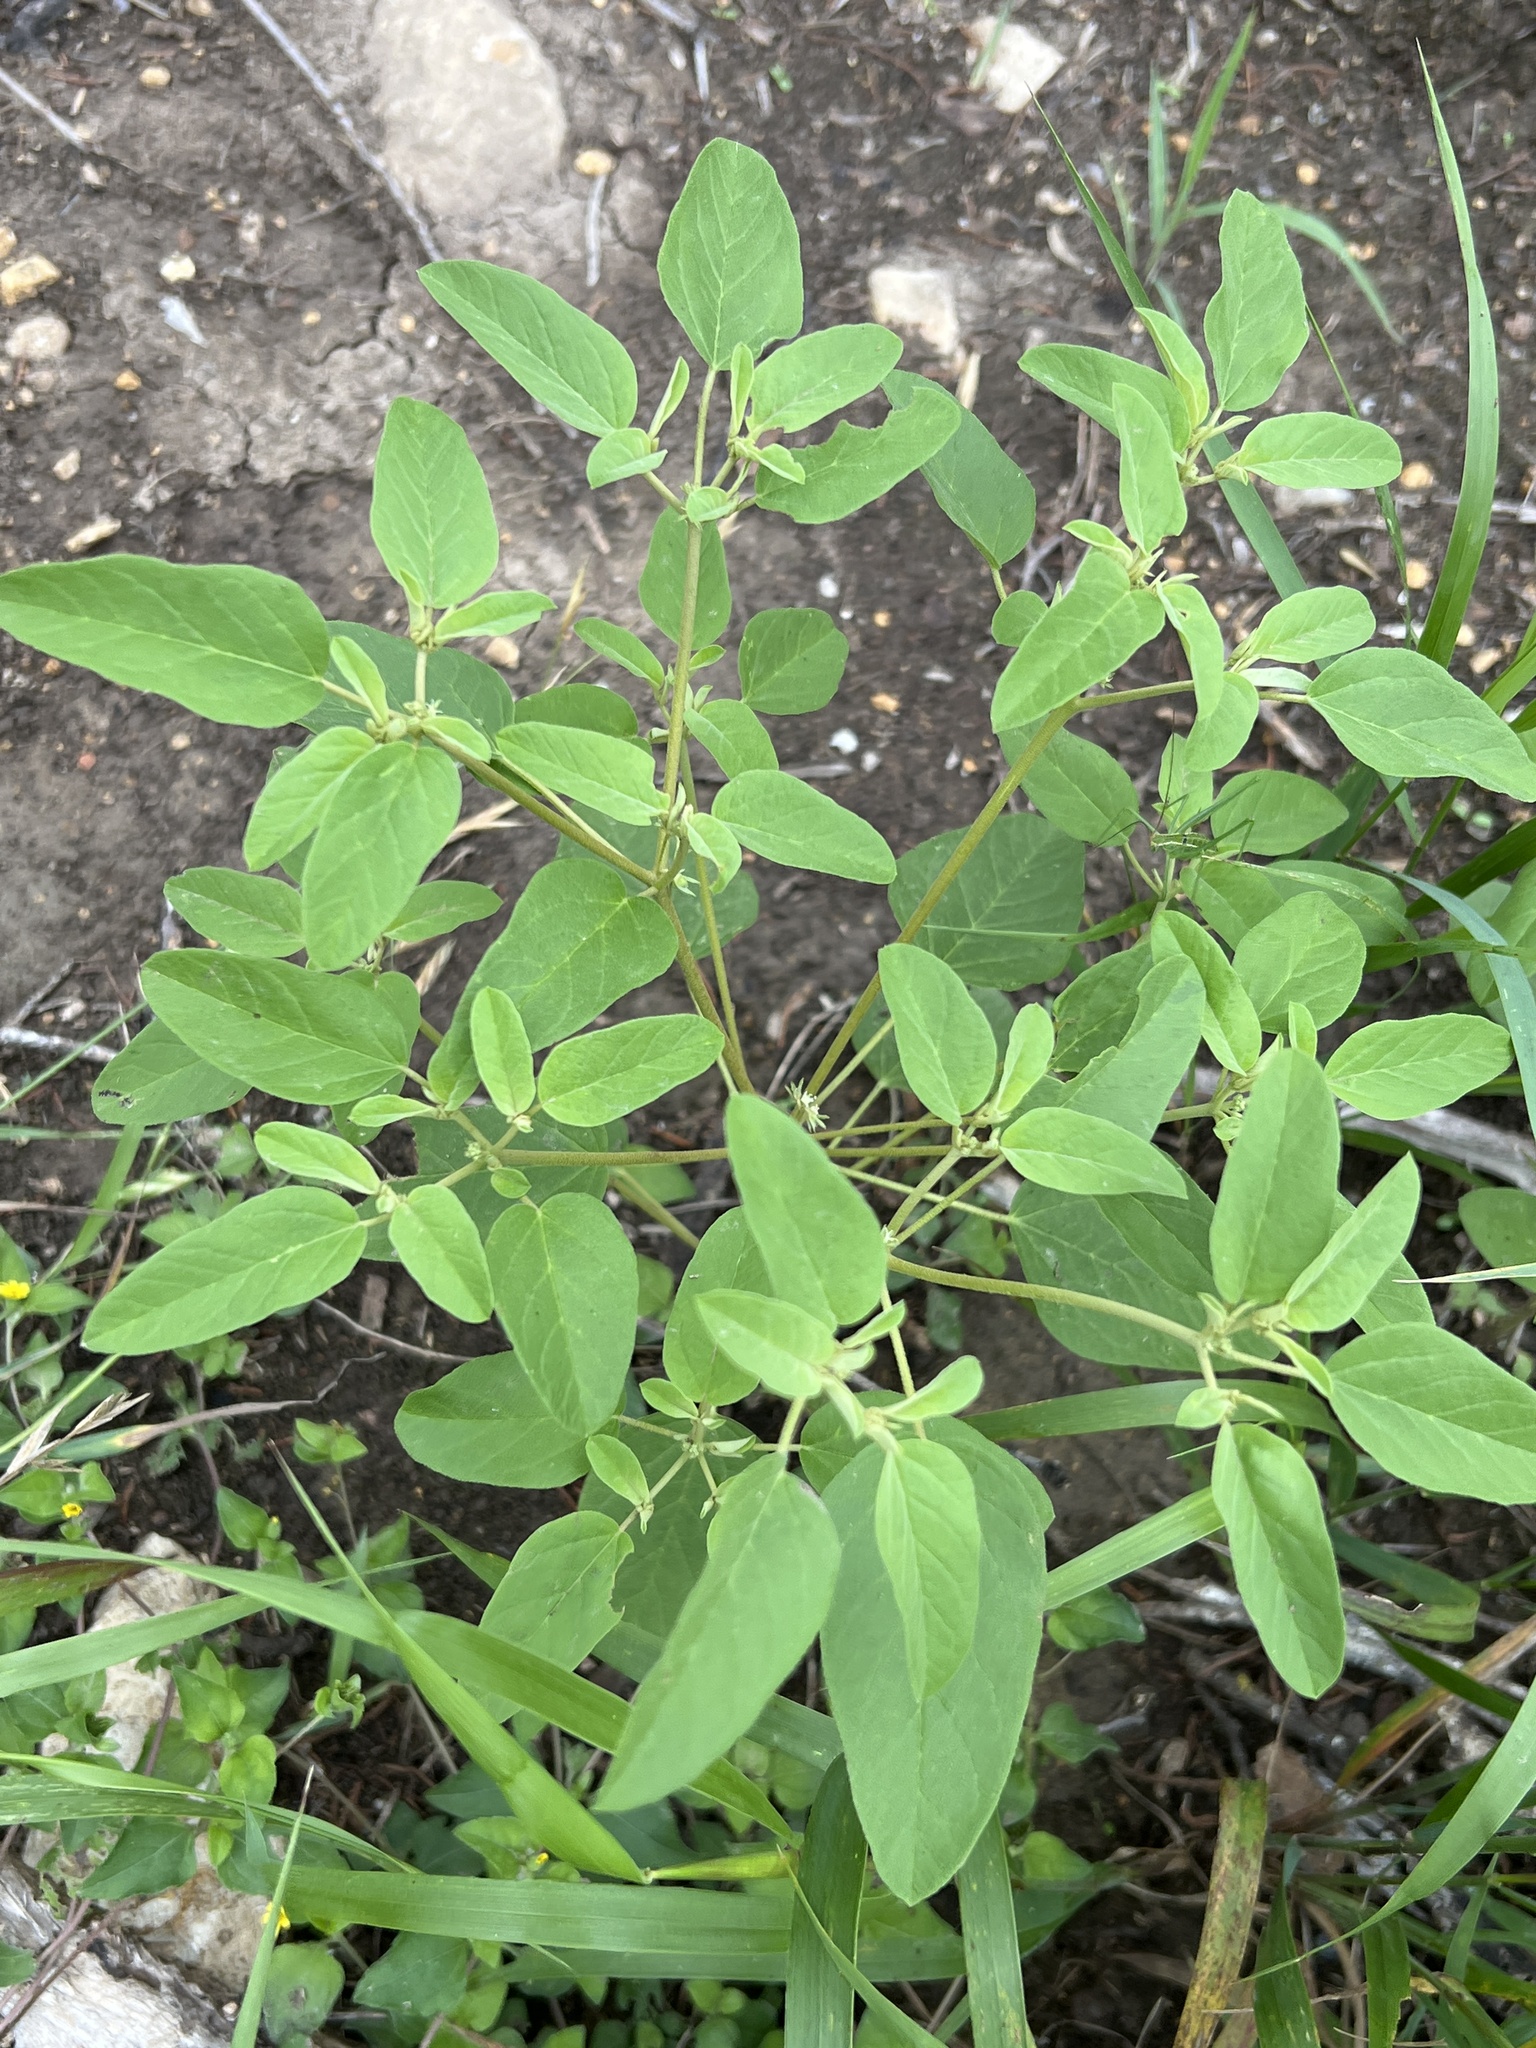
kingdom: Plantae
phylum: Tracheophyta
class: Magnoliopsida
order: Malpighiales
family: Euphorbiaceae
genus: Croton
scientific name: Croton monanthogynus
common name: One-seed croton
